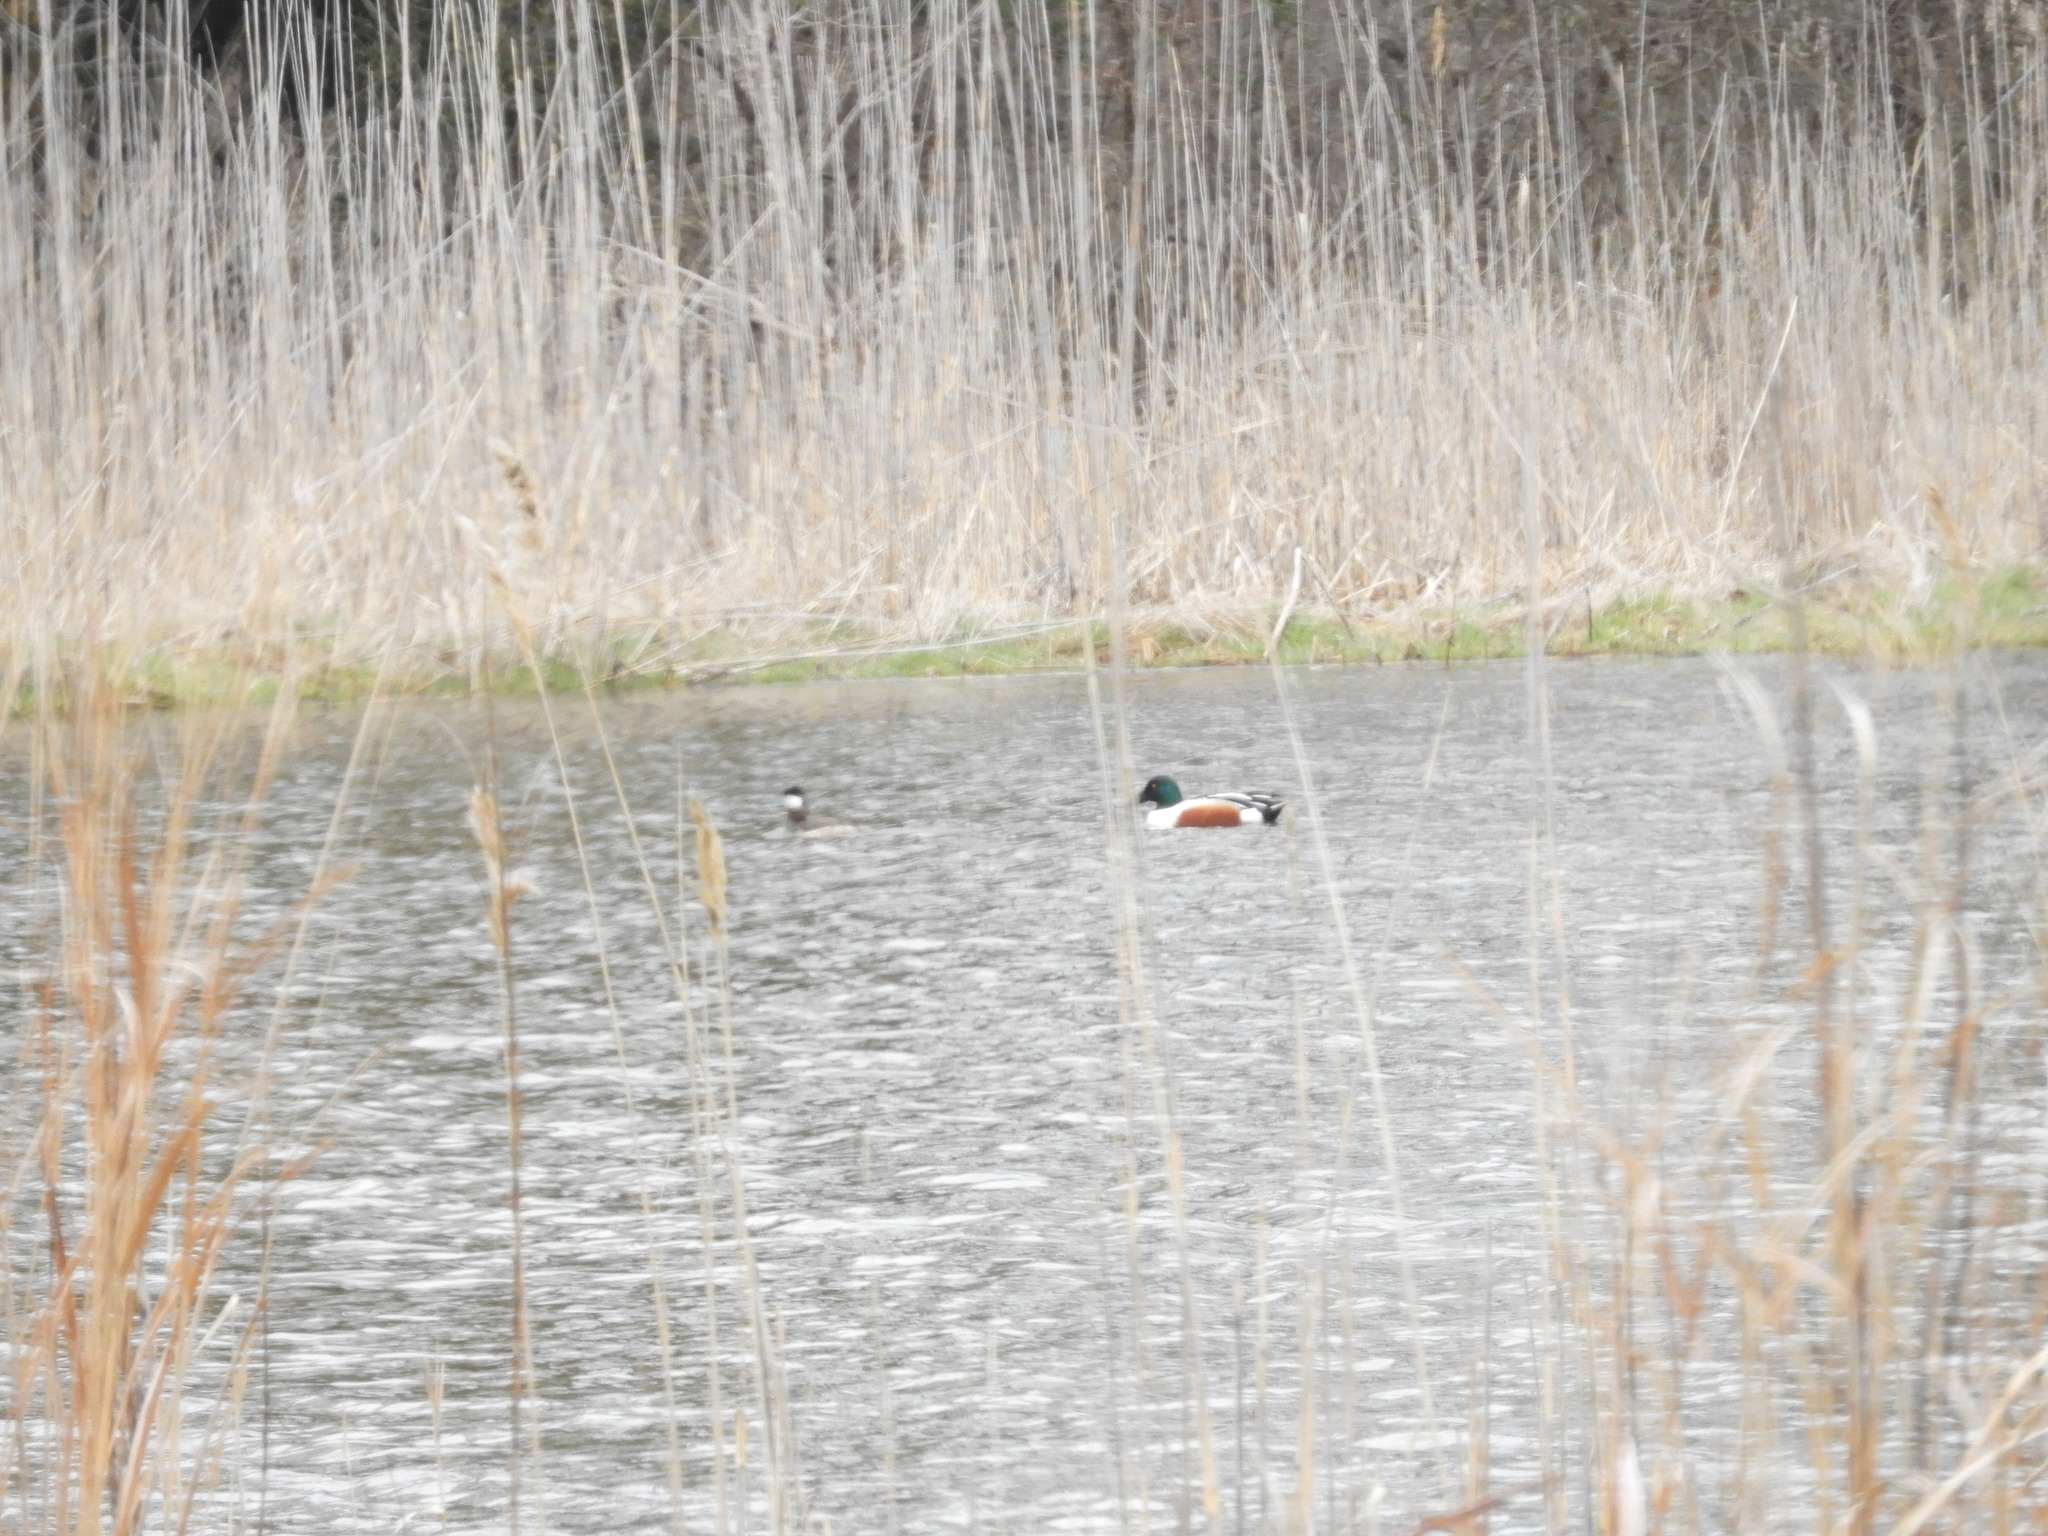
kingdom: Animalia
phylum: Chordata
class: Aves
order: Anseriformes
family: Anatidae
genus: Spatula
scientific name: Spatula clypeata
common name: Northern shoveler
